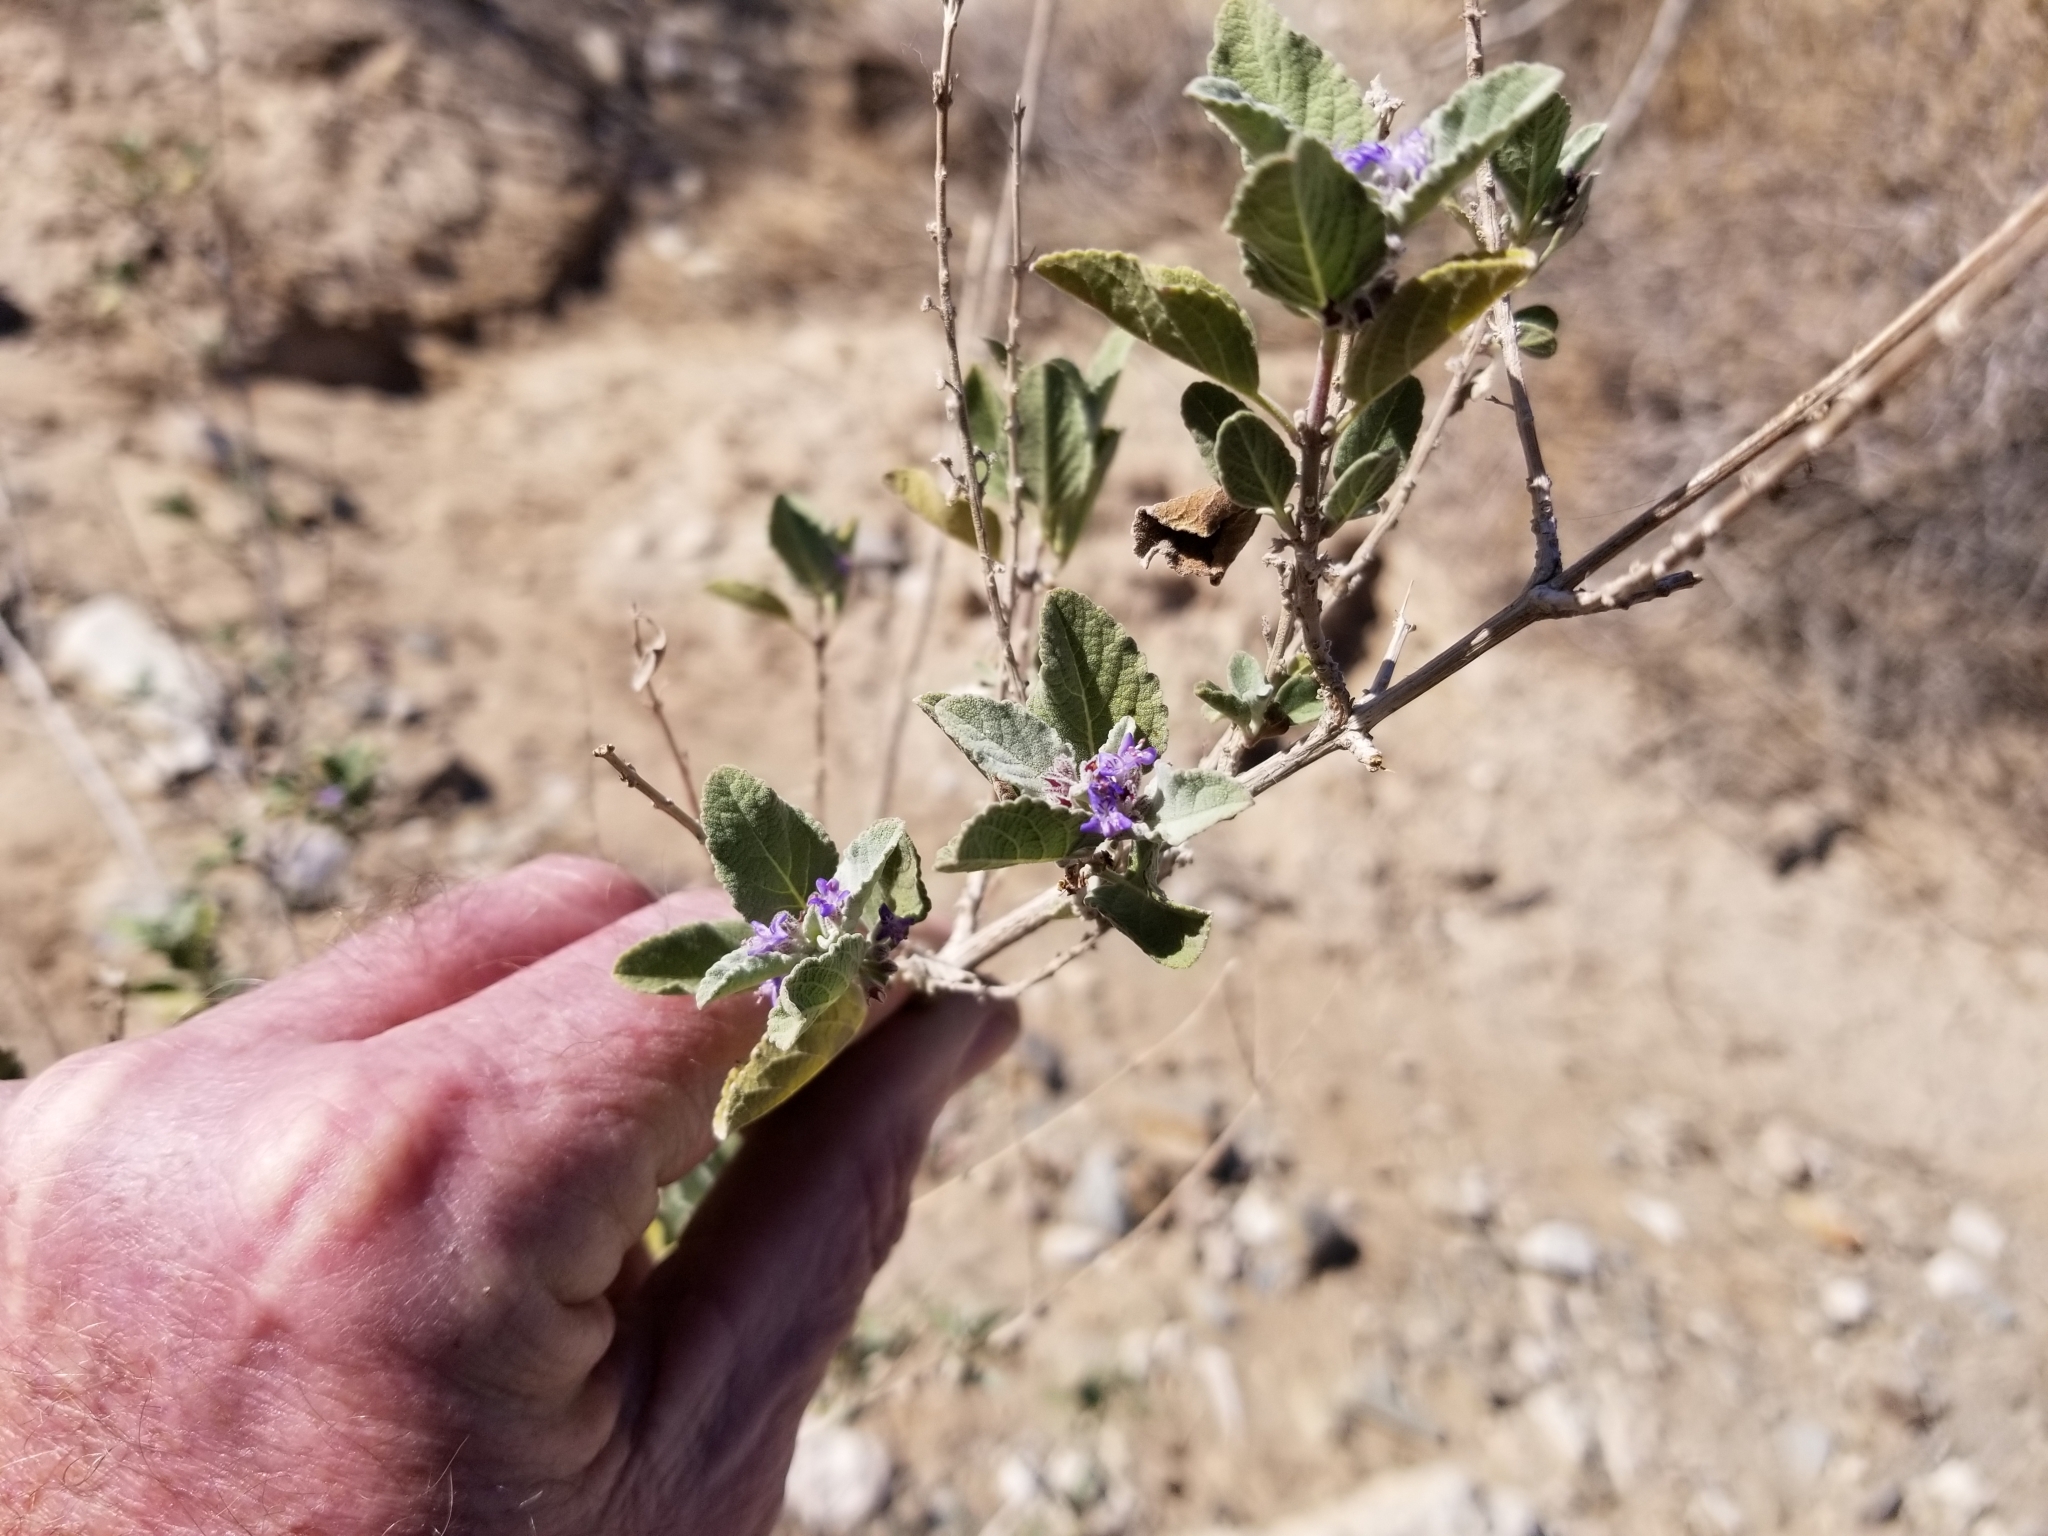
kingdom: Plantae
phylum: Tracheophyta
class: Magnoliopsida
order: Lamiales
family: Lamiaceae
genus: Condea
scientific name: Condea emoryi
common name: Chia
